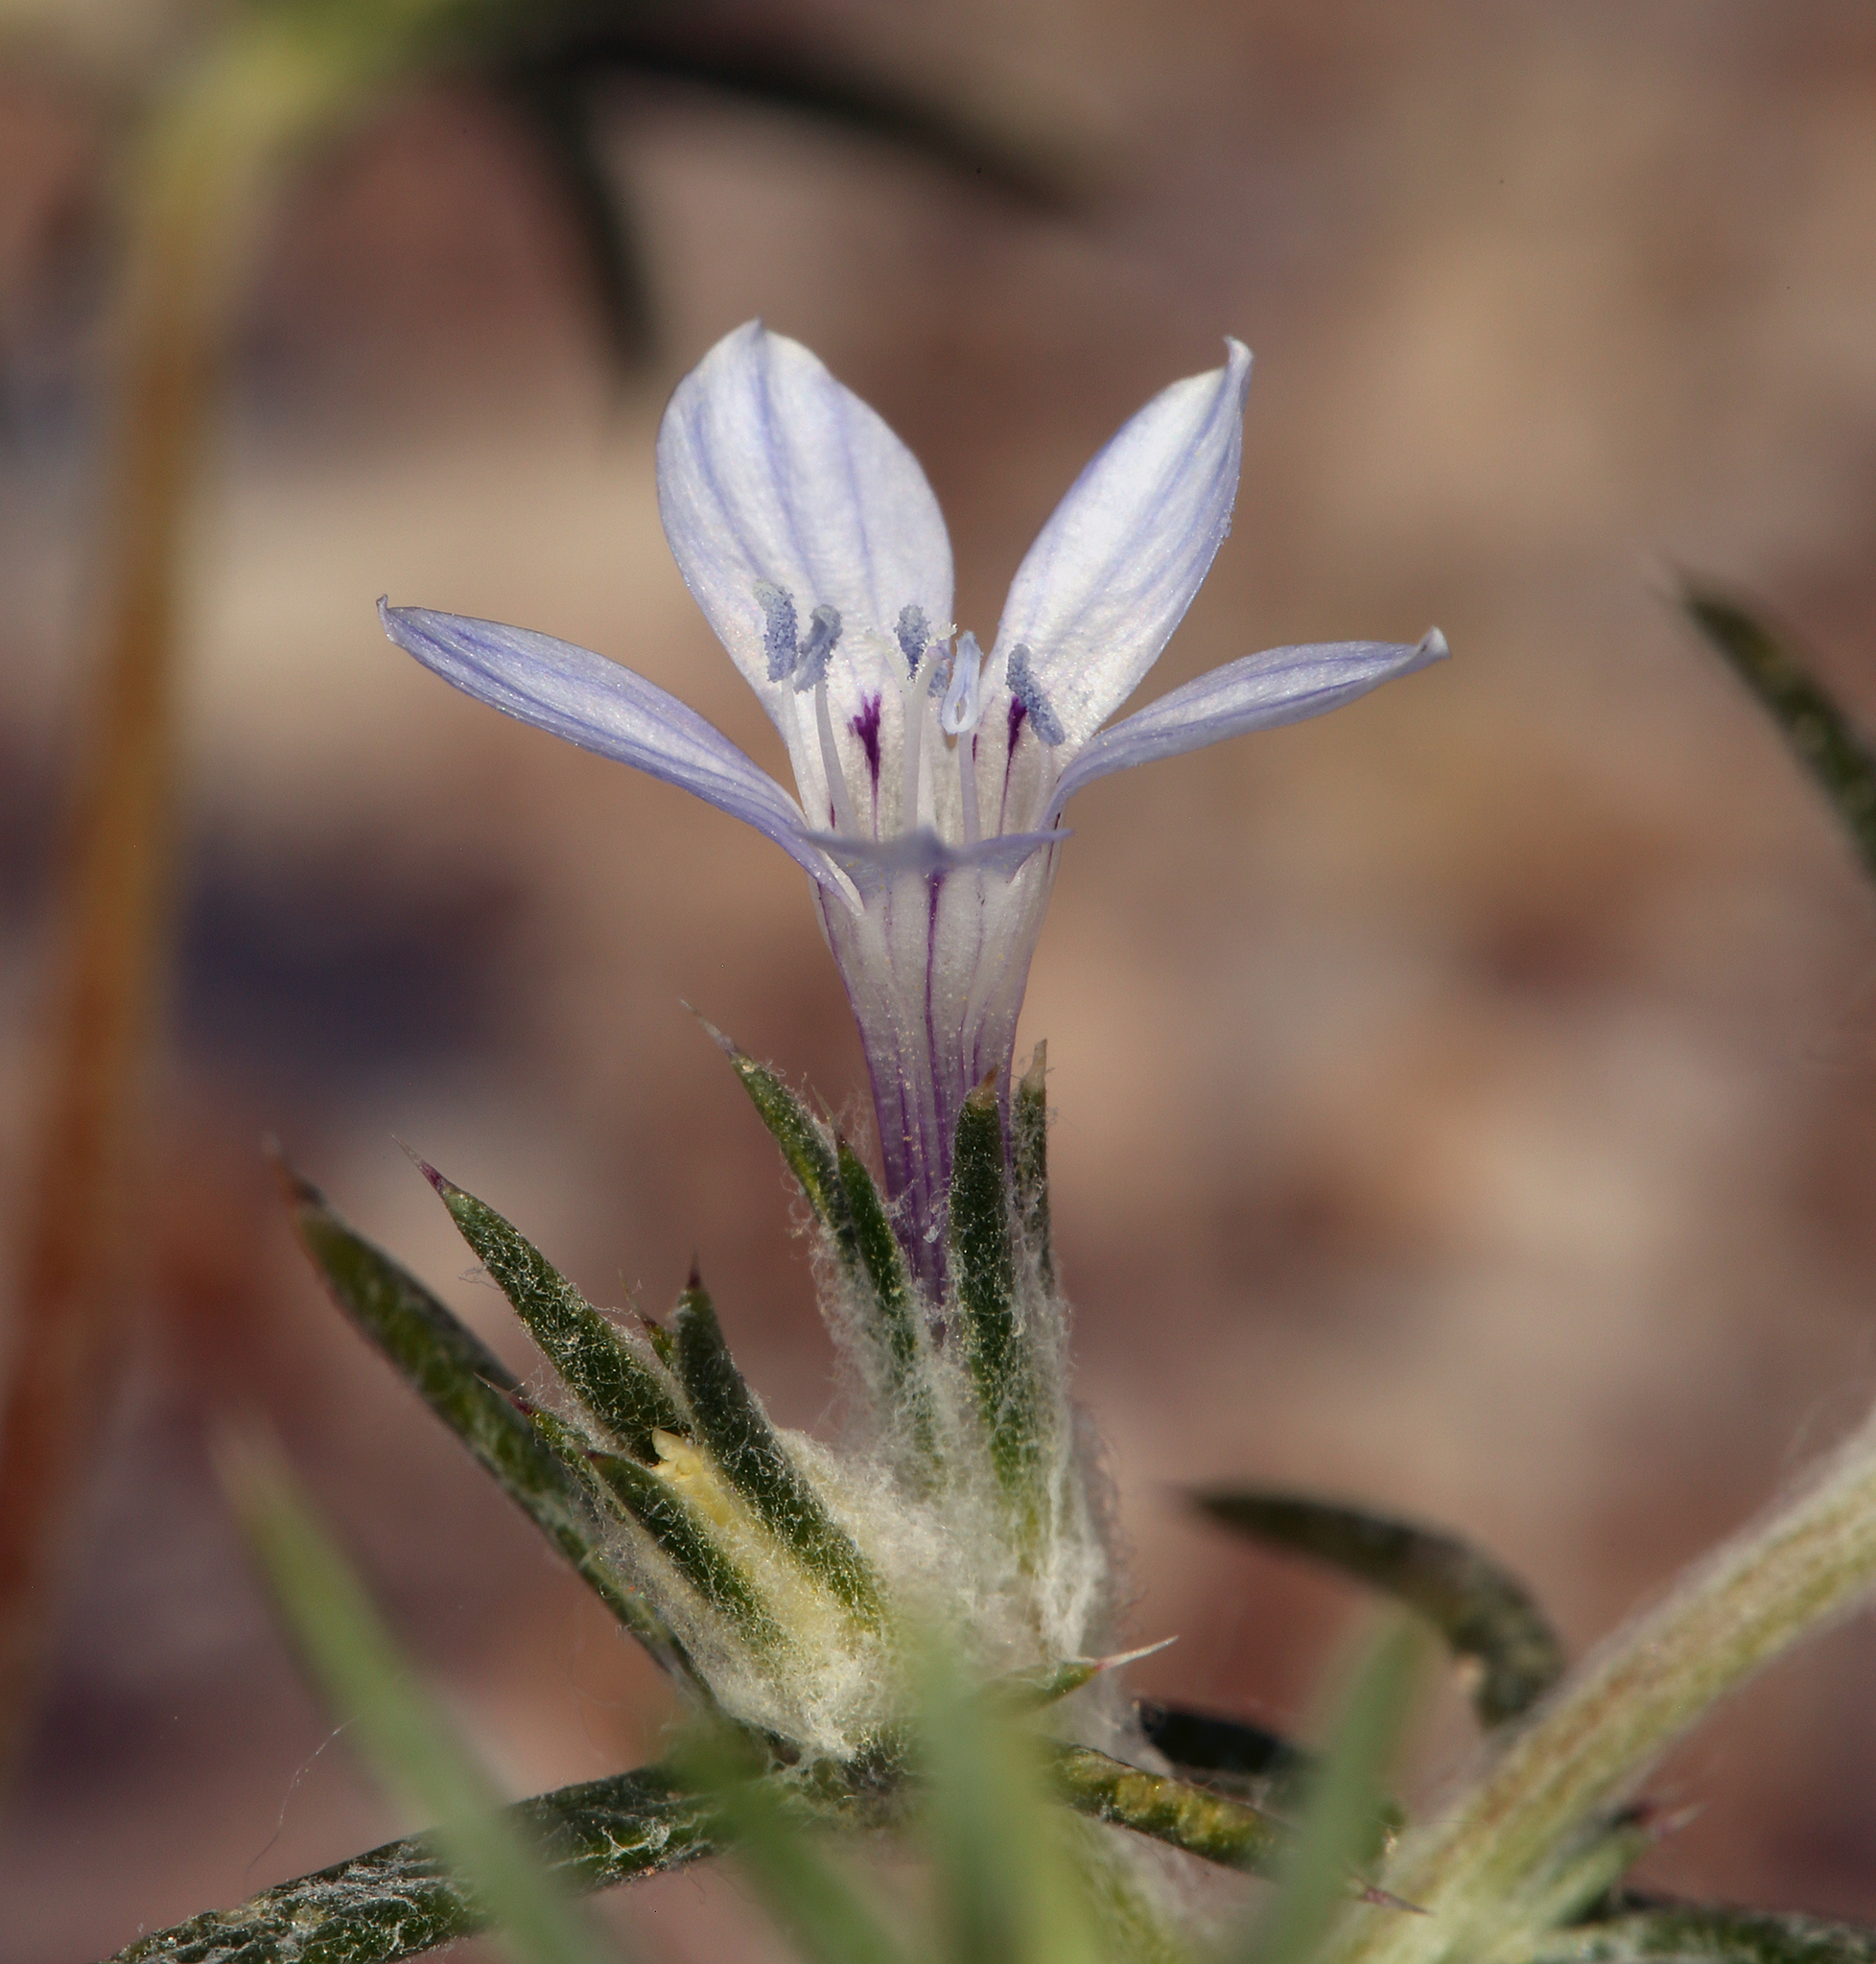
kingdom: Plantae
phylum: Tracheophyta
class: Magnoliopsida
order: Ericales
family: Polemoniaceae
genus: Eriastrum
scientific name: Eriastrum wilcoxii
